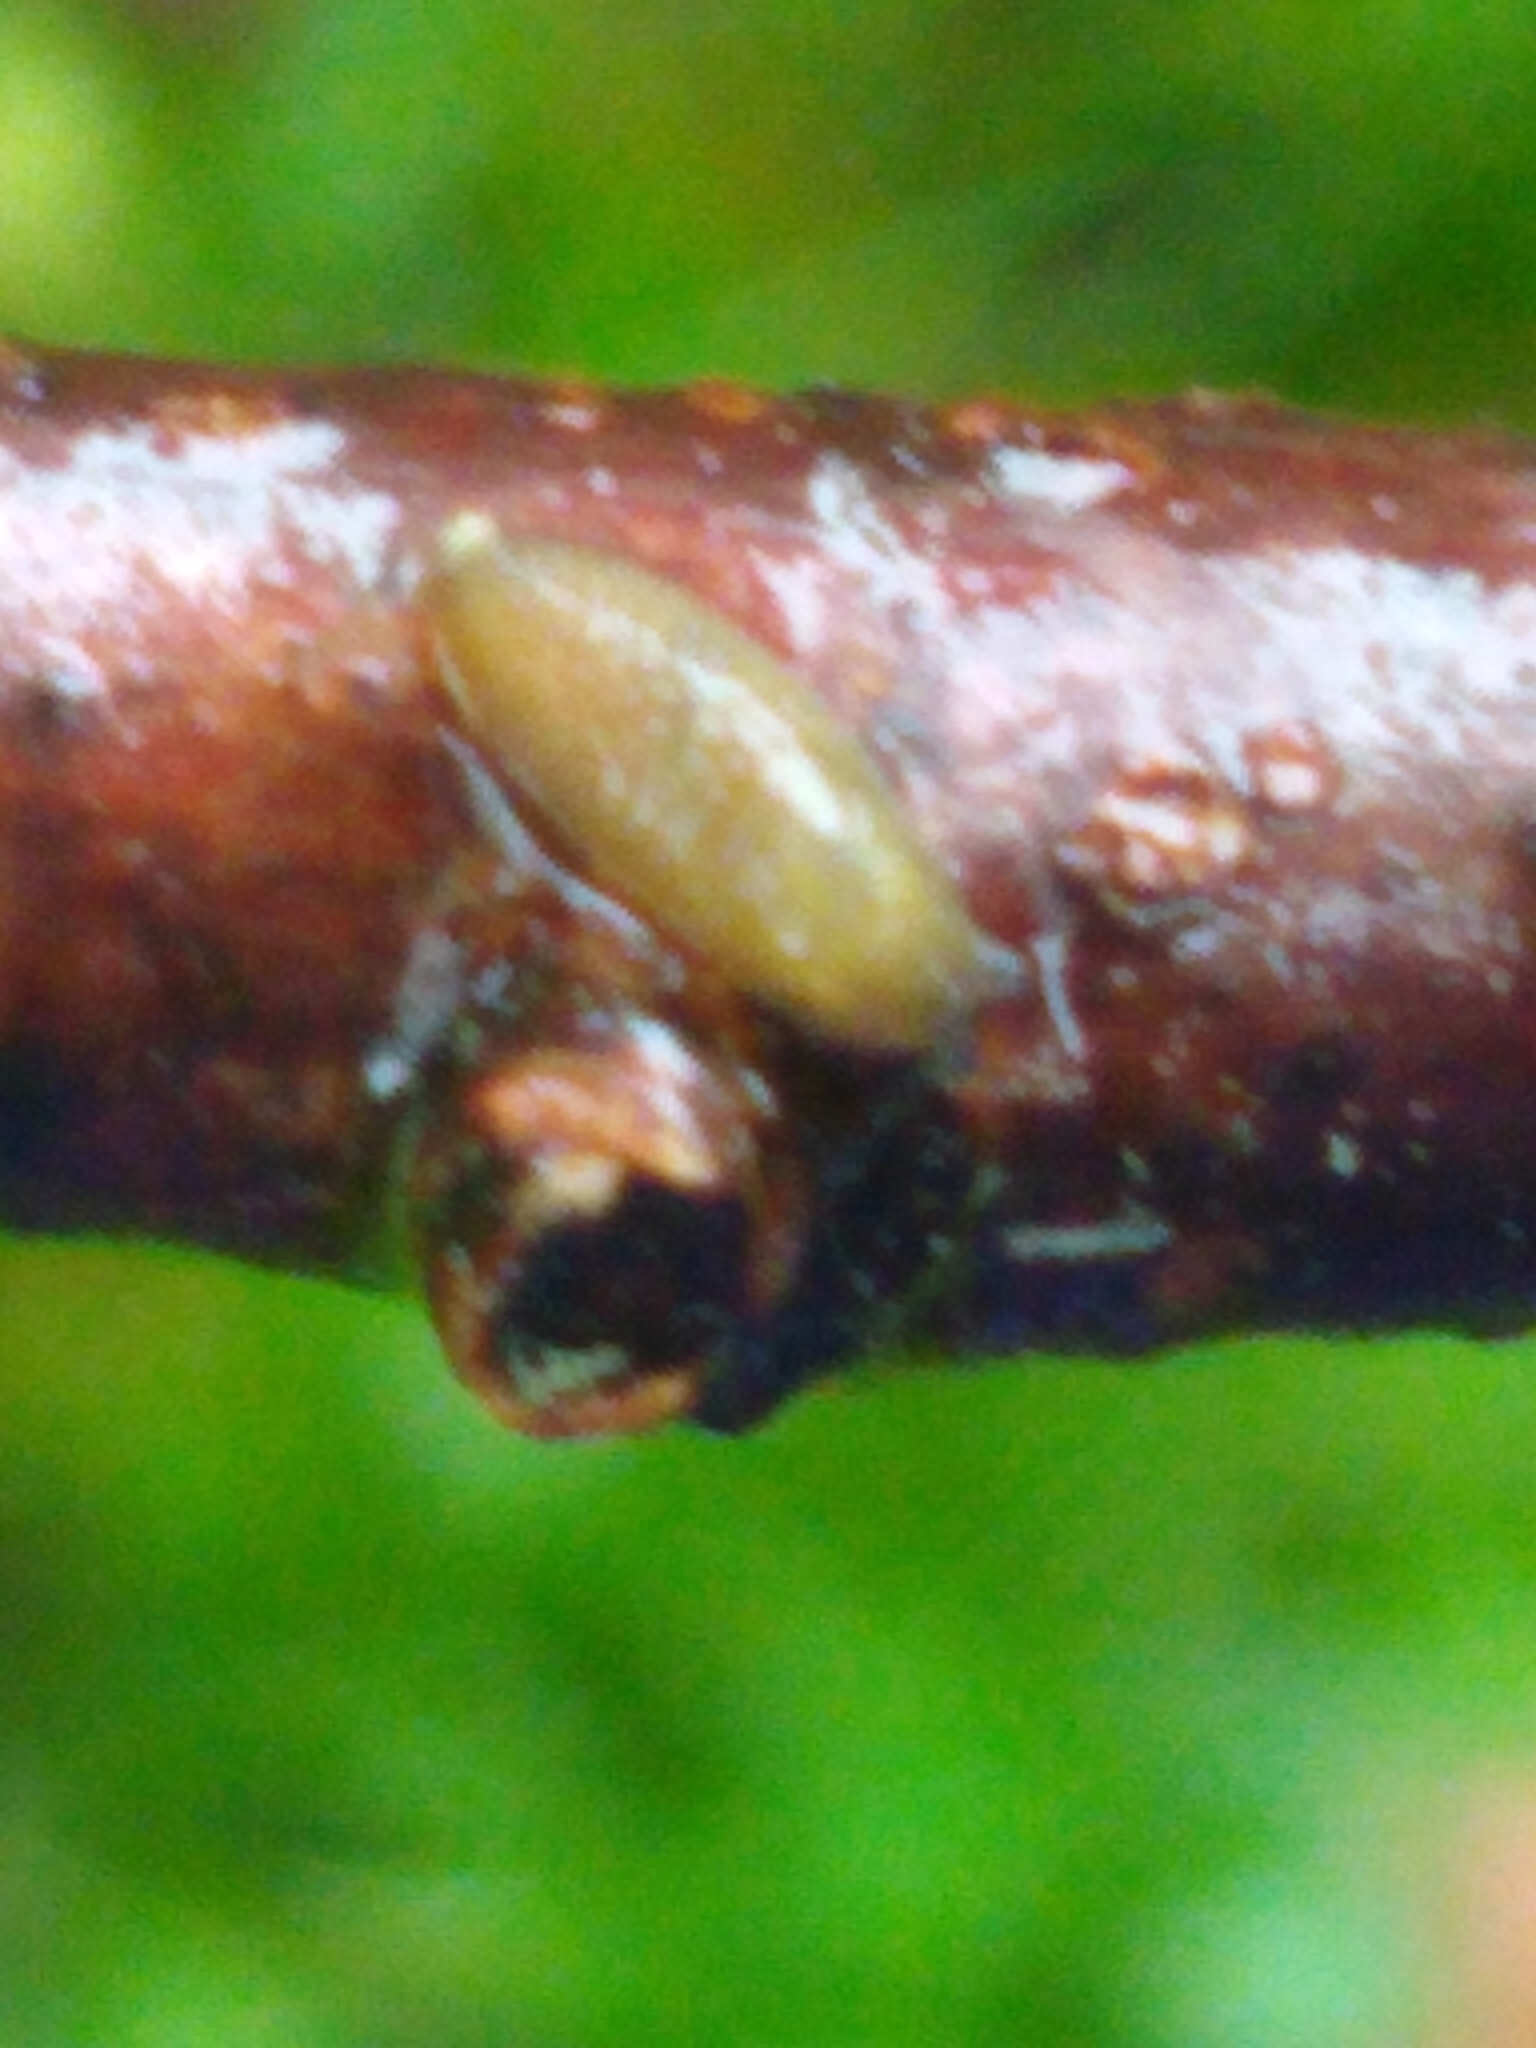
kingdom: Animalia
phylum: Mollusca
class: Gastropoda
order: Stylommatophora
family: Arionidae
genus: Arion
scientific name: Arion intermedius
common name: Hedgehog slug
